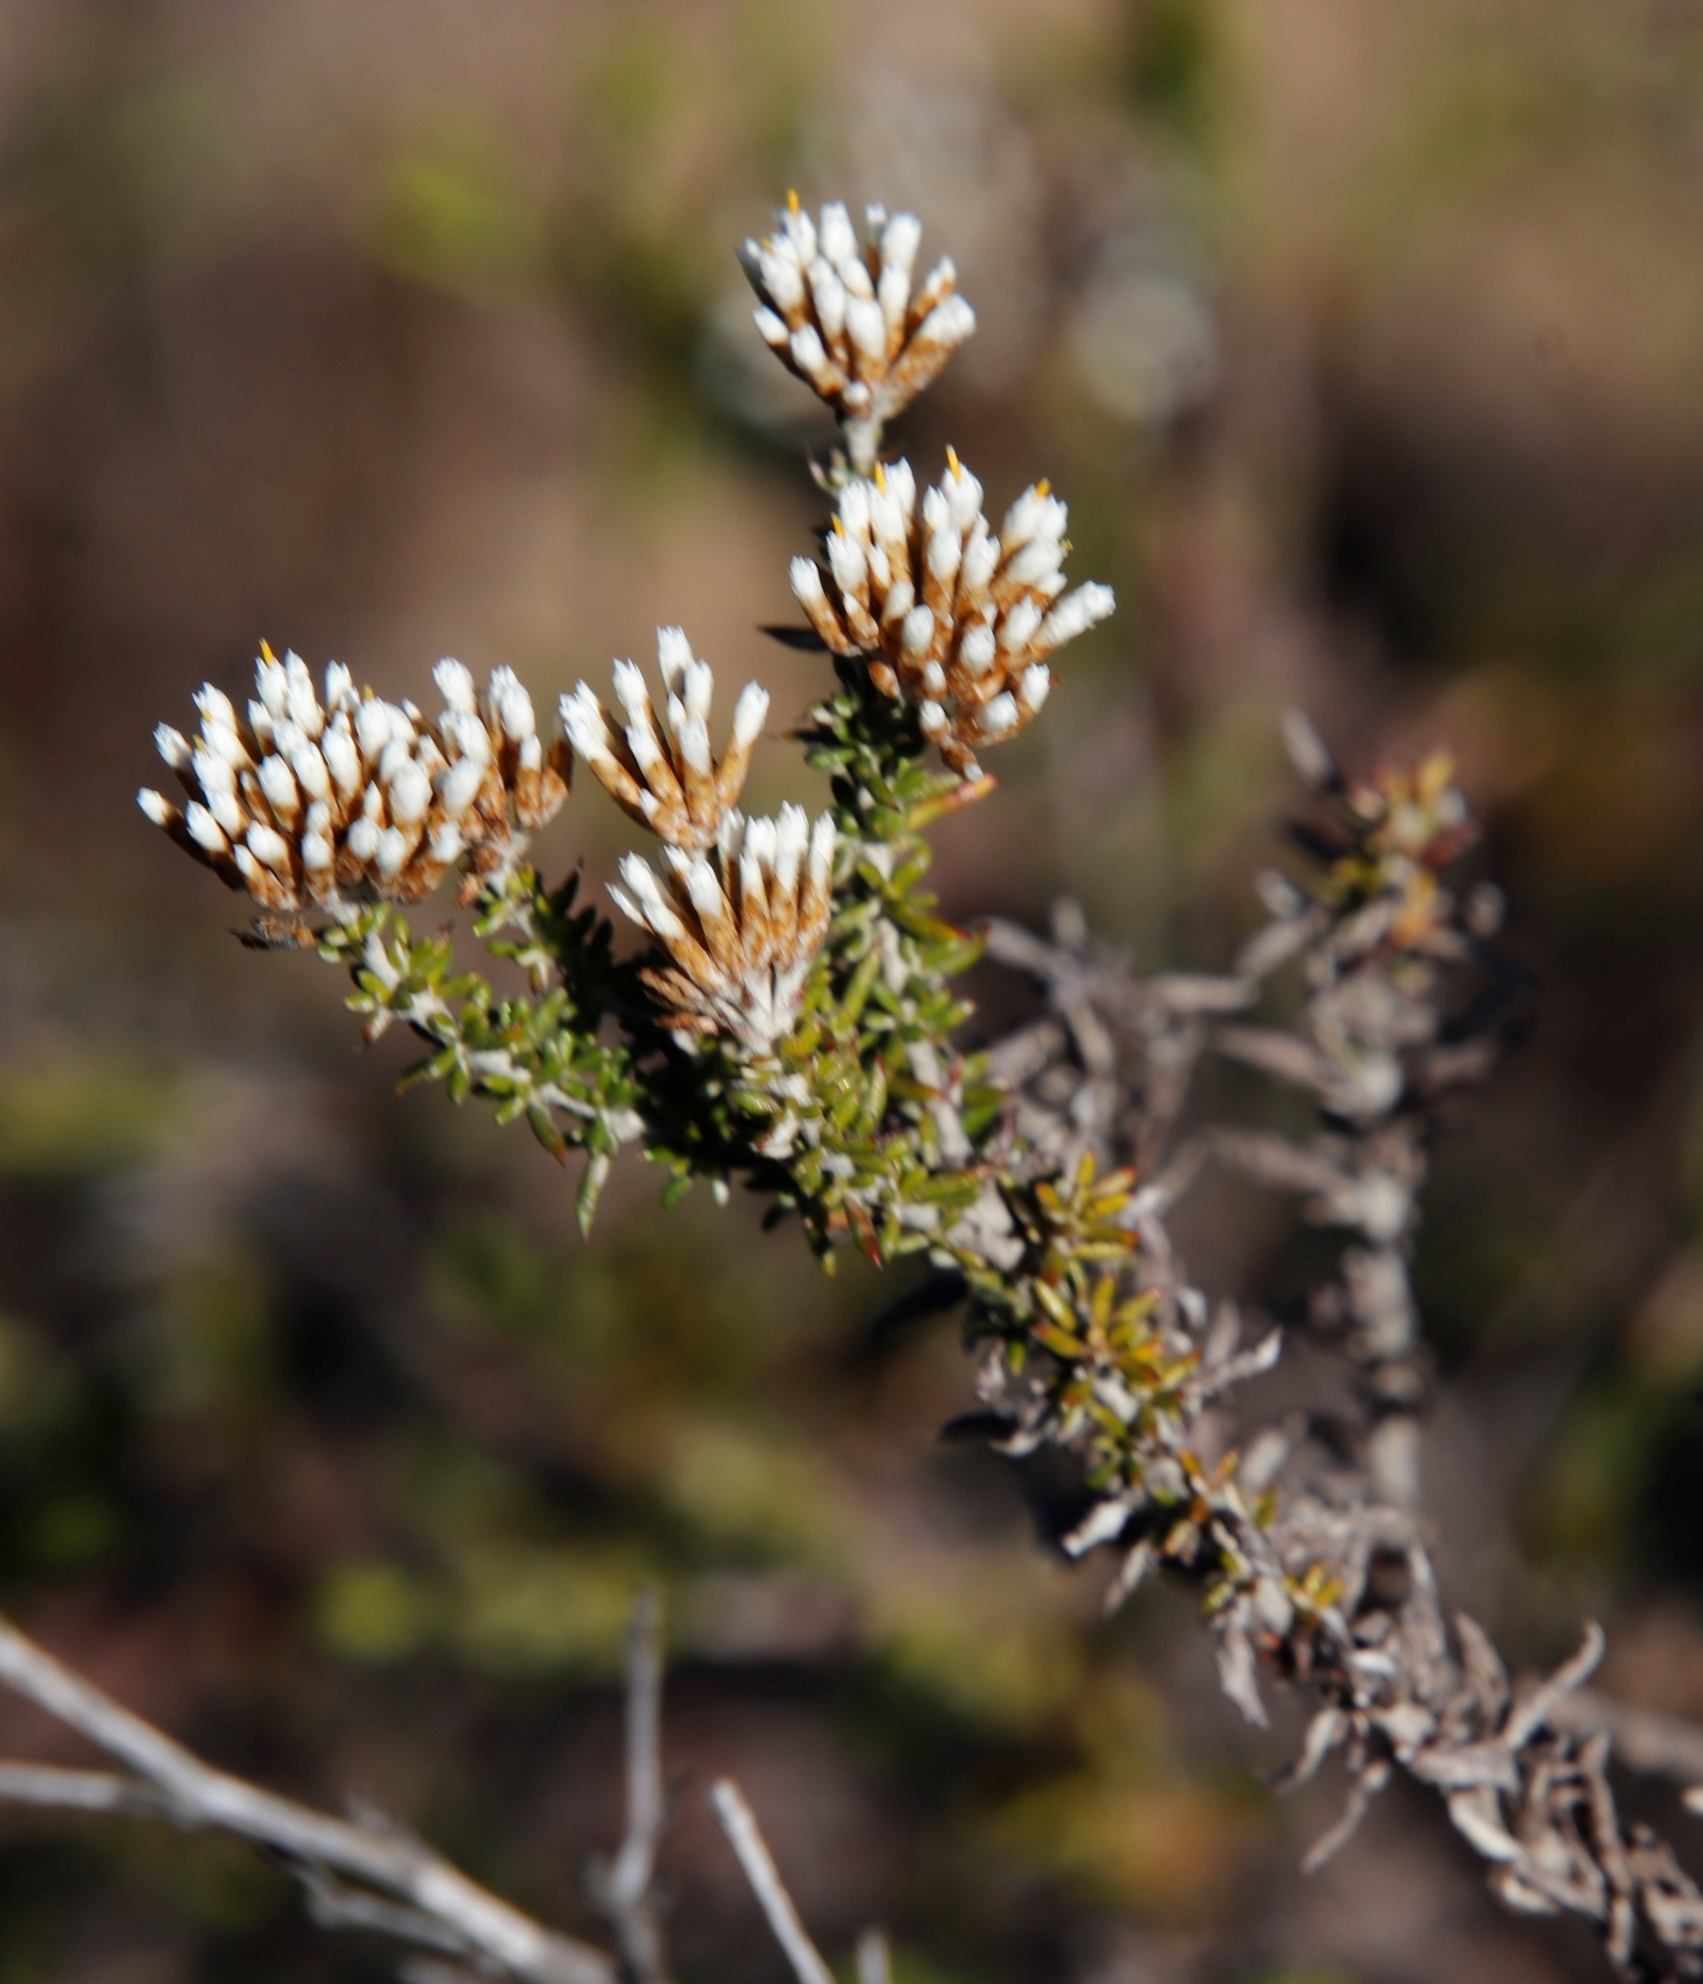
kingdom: Plantae
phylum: Tracheophyta
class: Magnoliopsida
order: Asterales
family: Asteraceae
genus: Metalasia
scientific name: Metalasia densa
